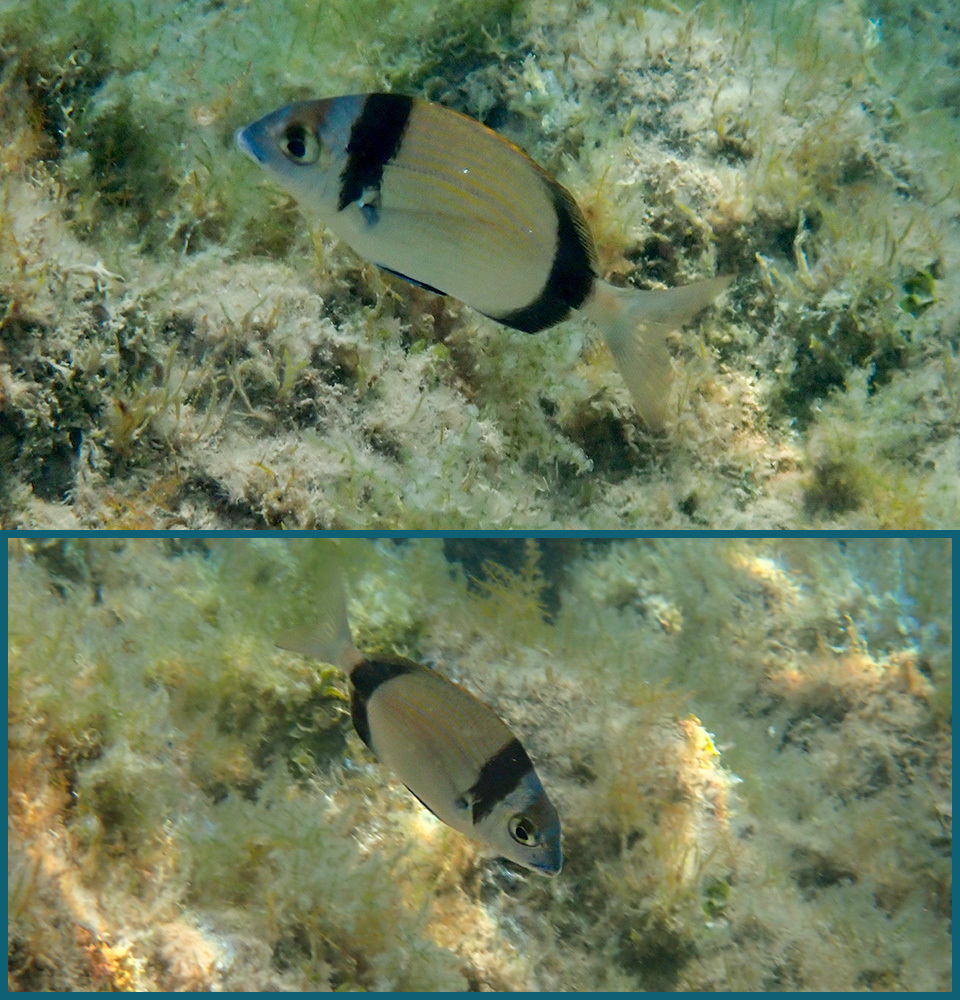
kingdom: Animalia
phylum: Chordata
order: Perciformes
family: Sparidae
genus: Diplodus
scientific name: Diplodus vulgaris
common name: Common two-banded seabream
